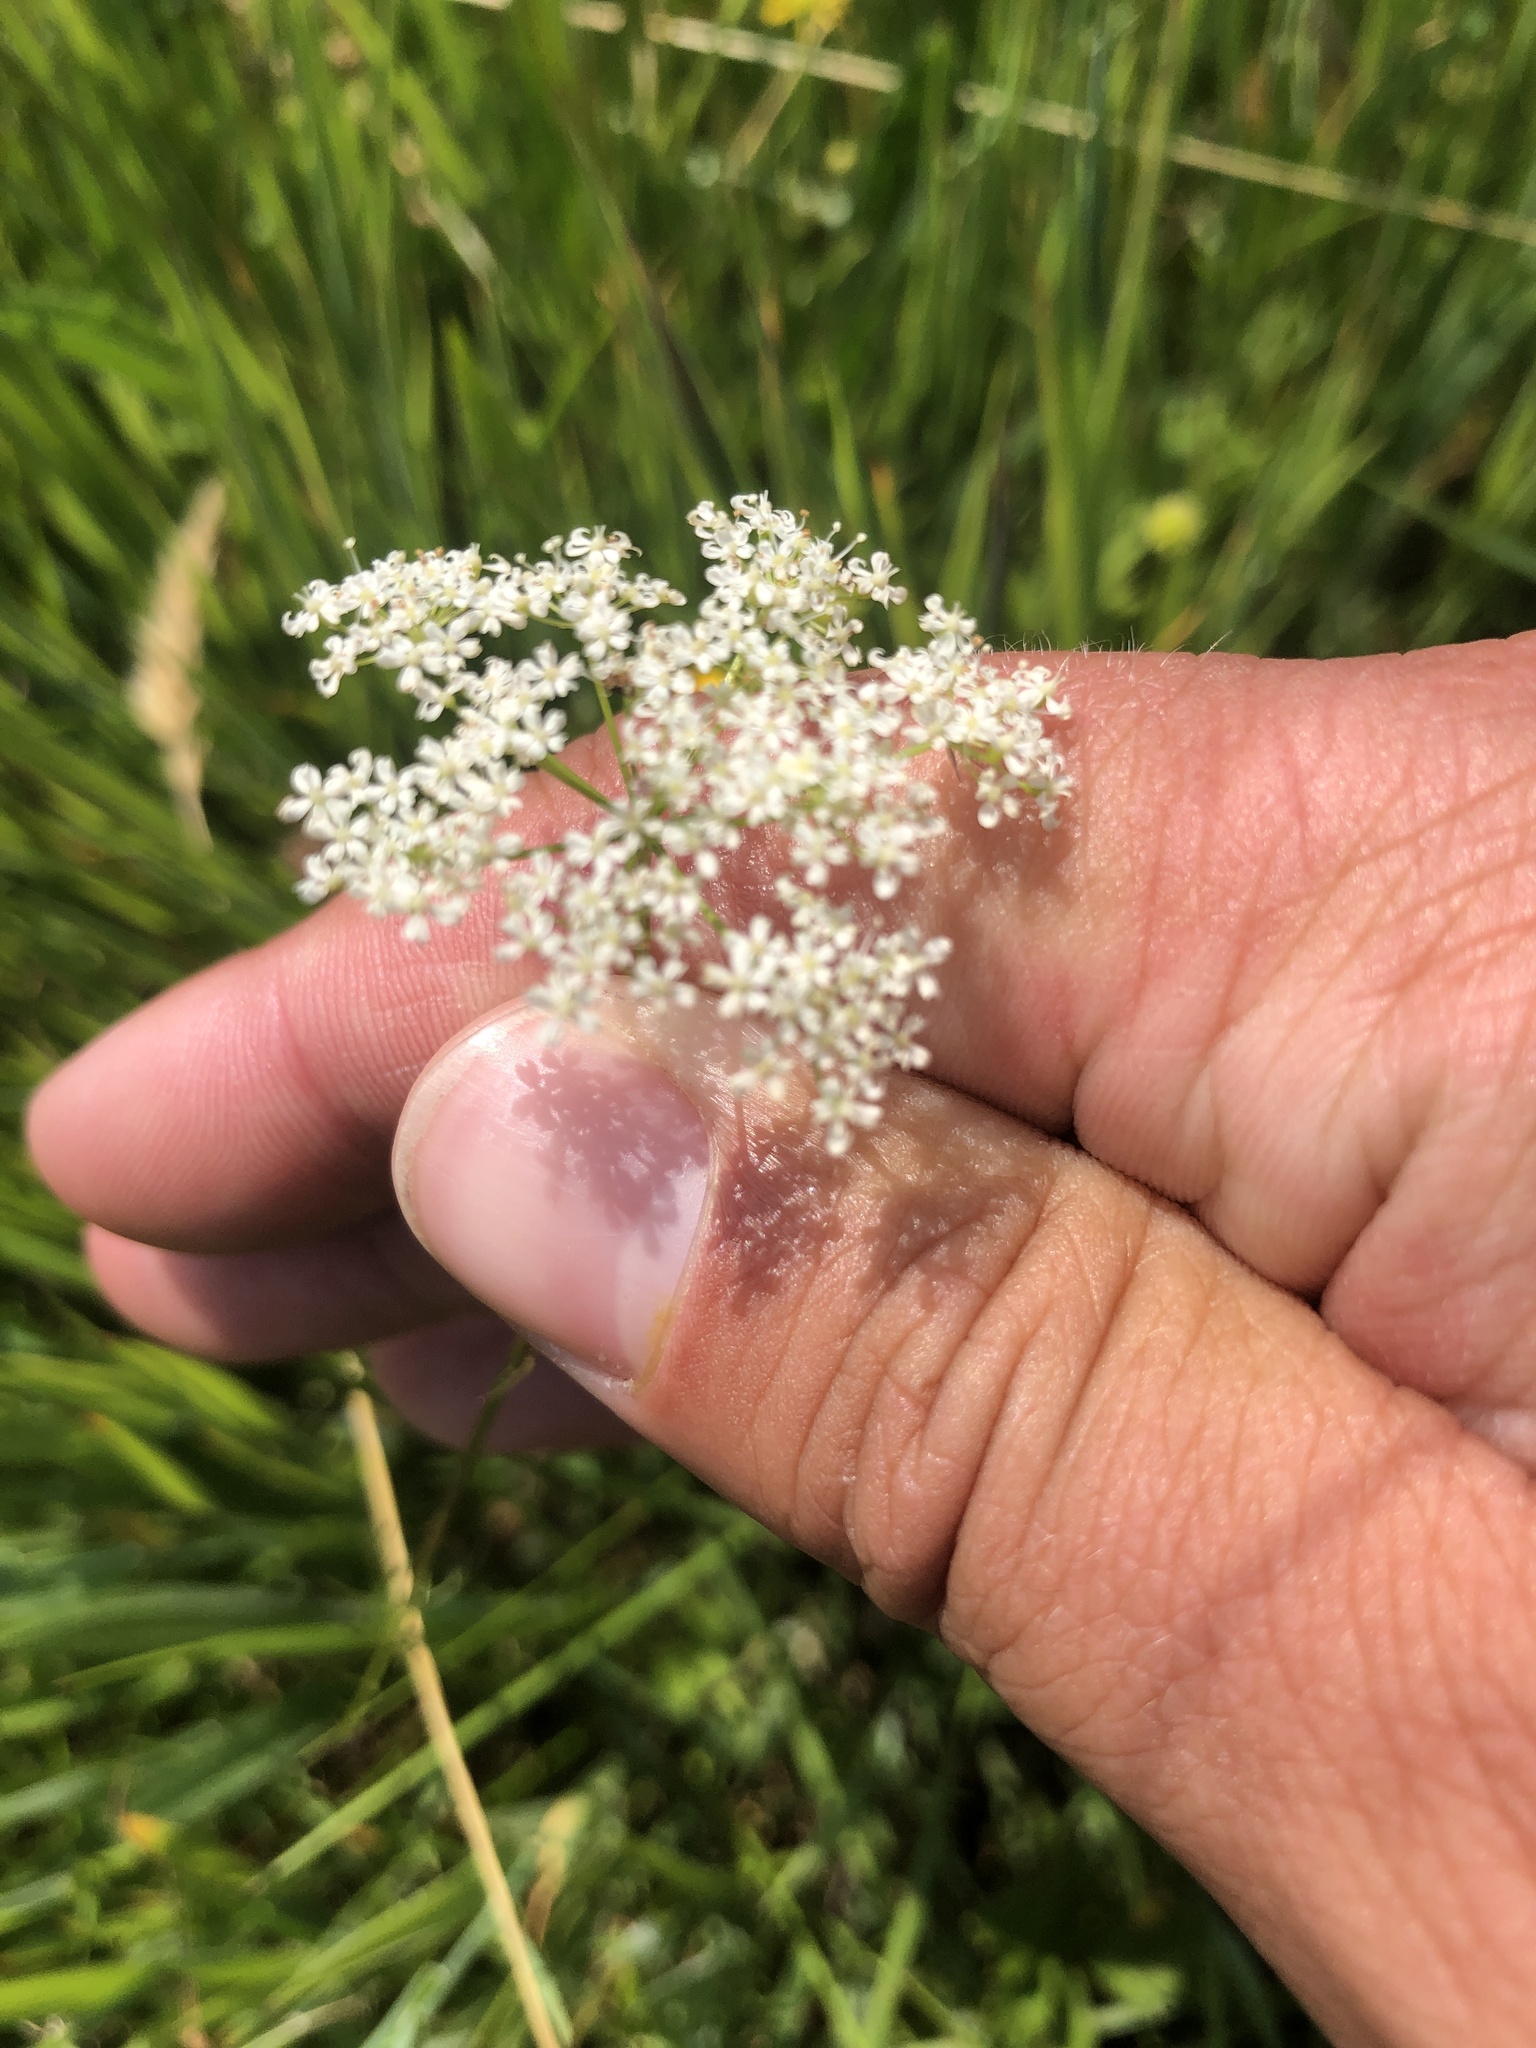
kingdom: Plantae
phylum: Tracheophyta
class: Magnoliopsida
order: Apiales
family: Apiaceae
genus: Conopodium
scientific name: Conopodium majus
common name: Pignut
